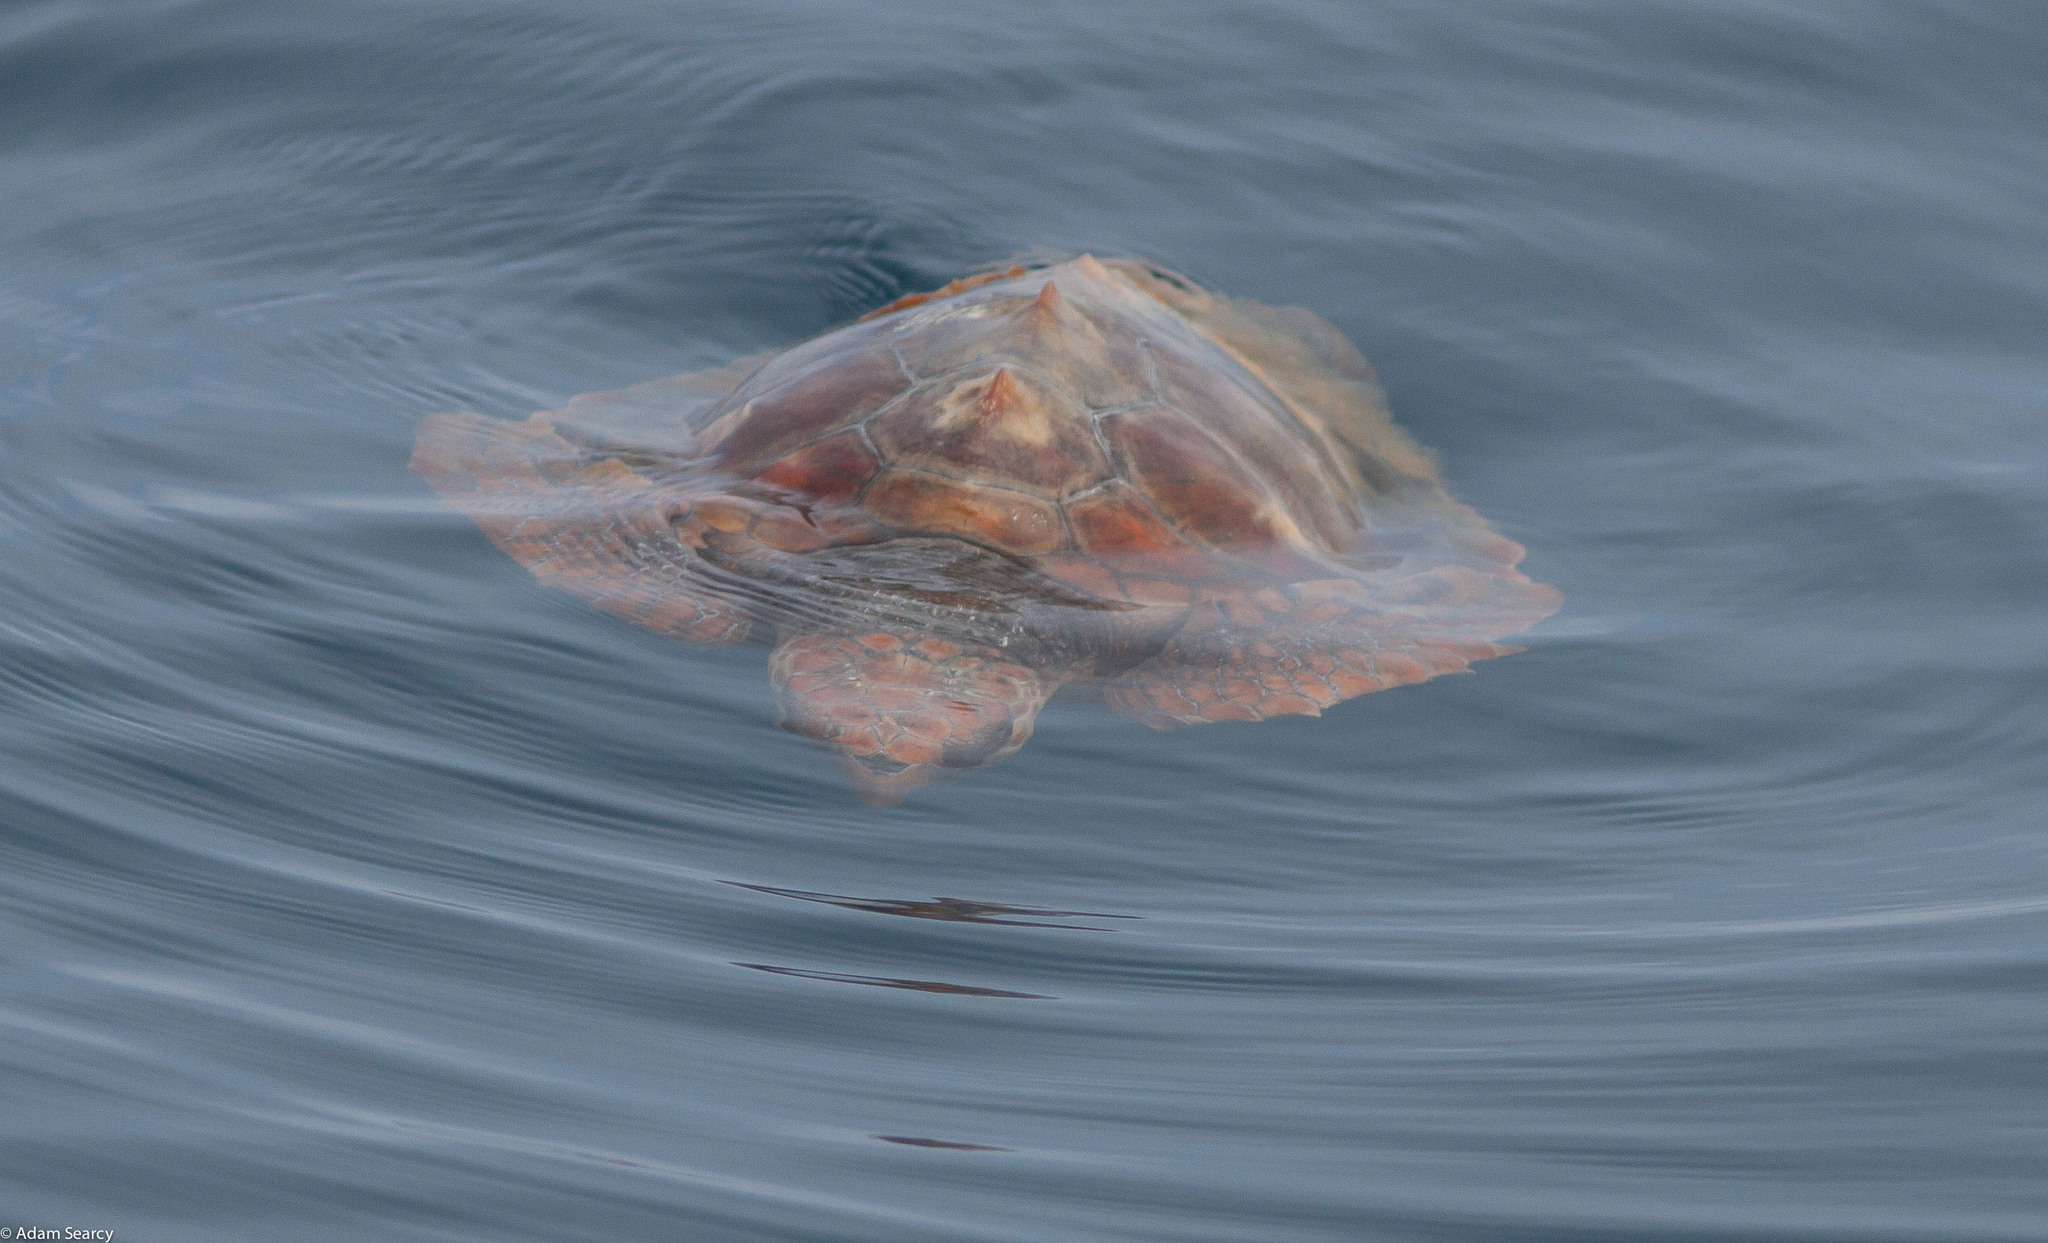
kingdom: Animalia
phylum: Chordata
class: Testudines
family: Cheloniidae
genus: Caretta
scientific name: Caretta caretta
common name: Loggerhead sea turtle
